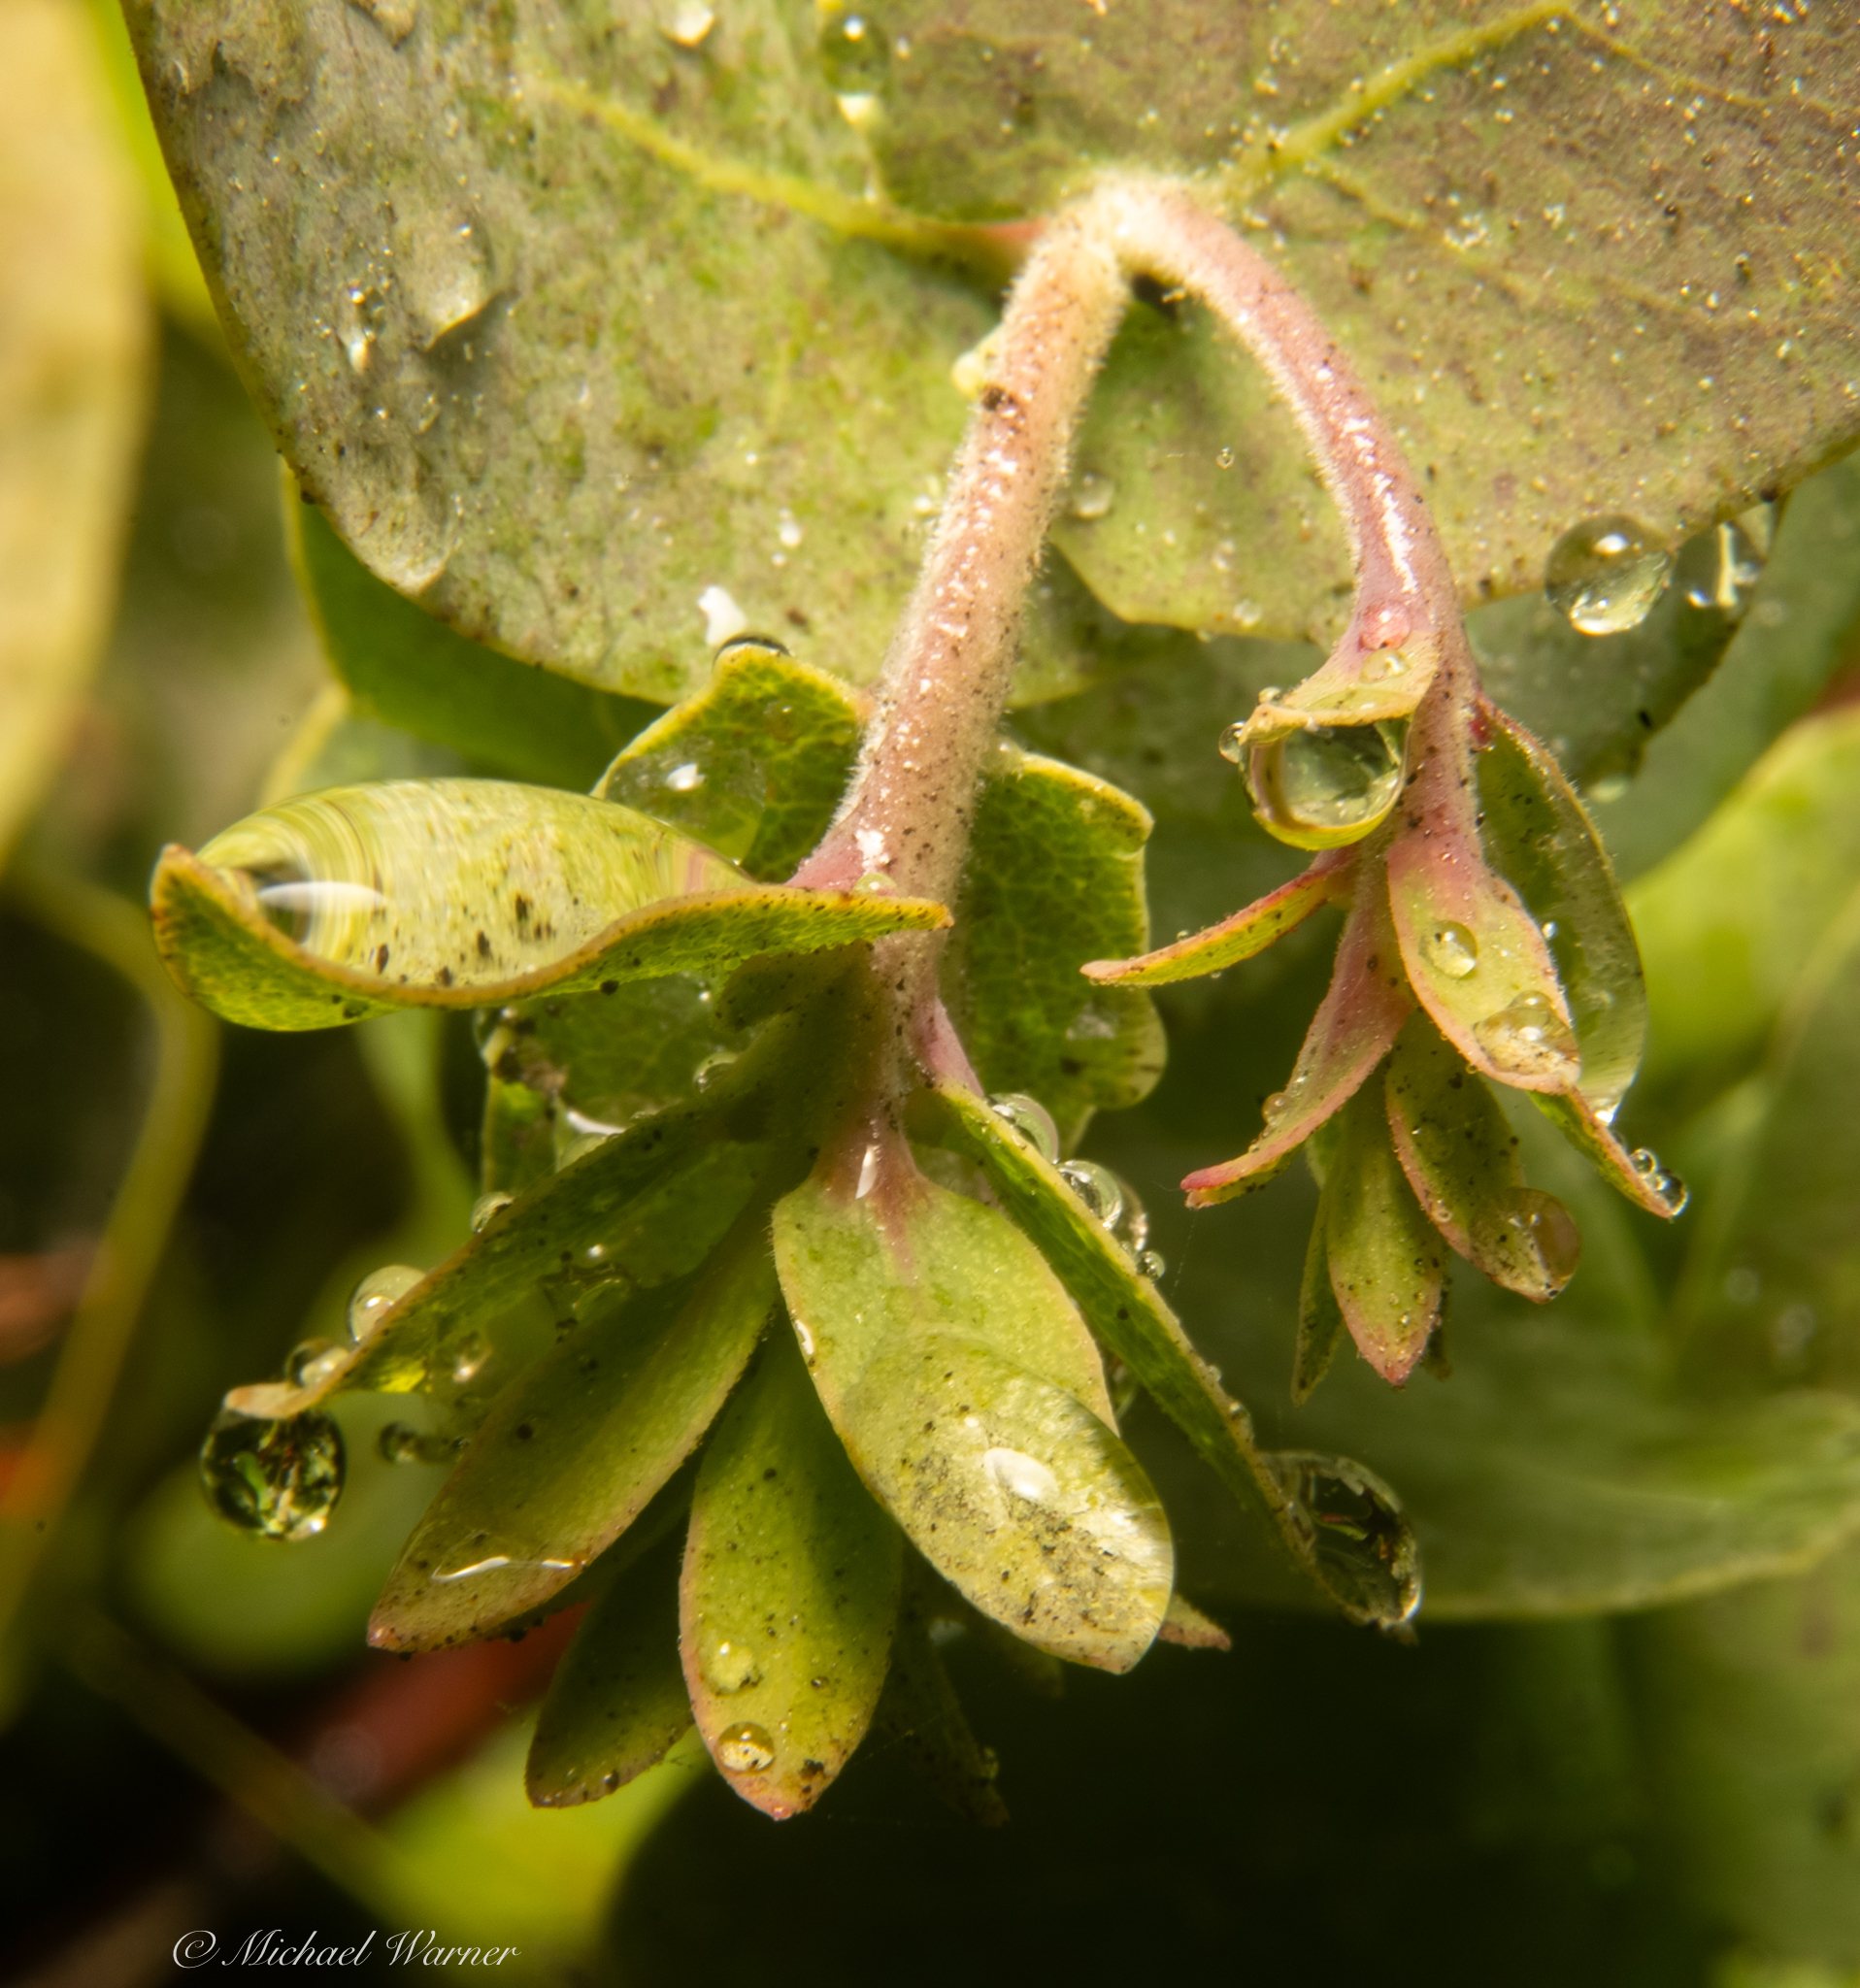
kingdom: Plantae
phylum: Tracheophyta
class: Magnoliopsida
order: Ericales
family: Ericaceae
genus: Arctostaphylos
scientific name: Arctostaphylos pallida
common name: Pallid manzanita
